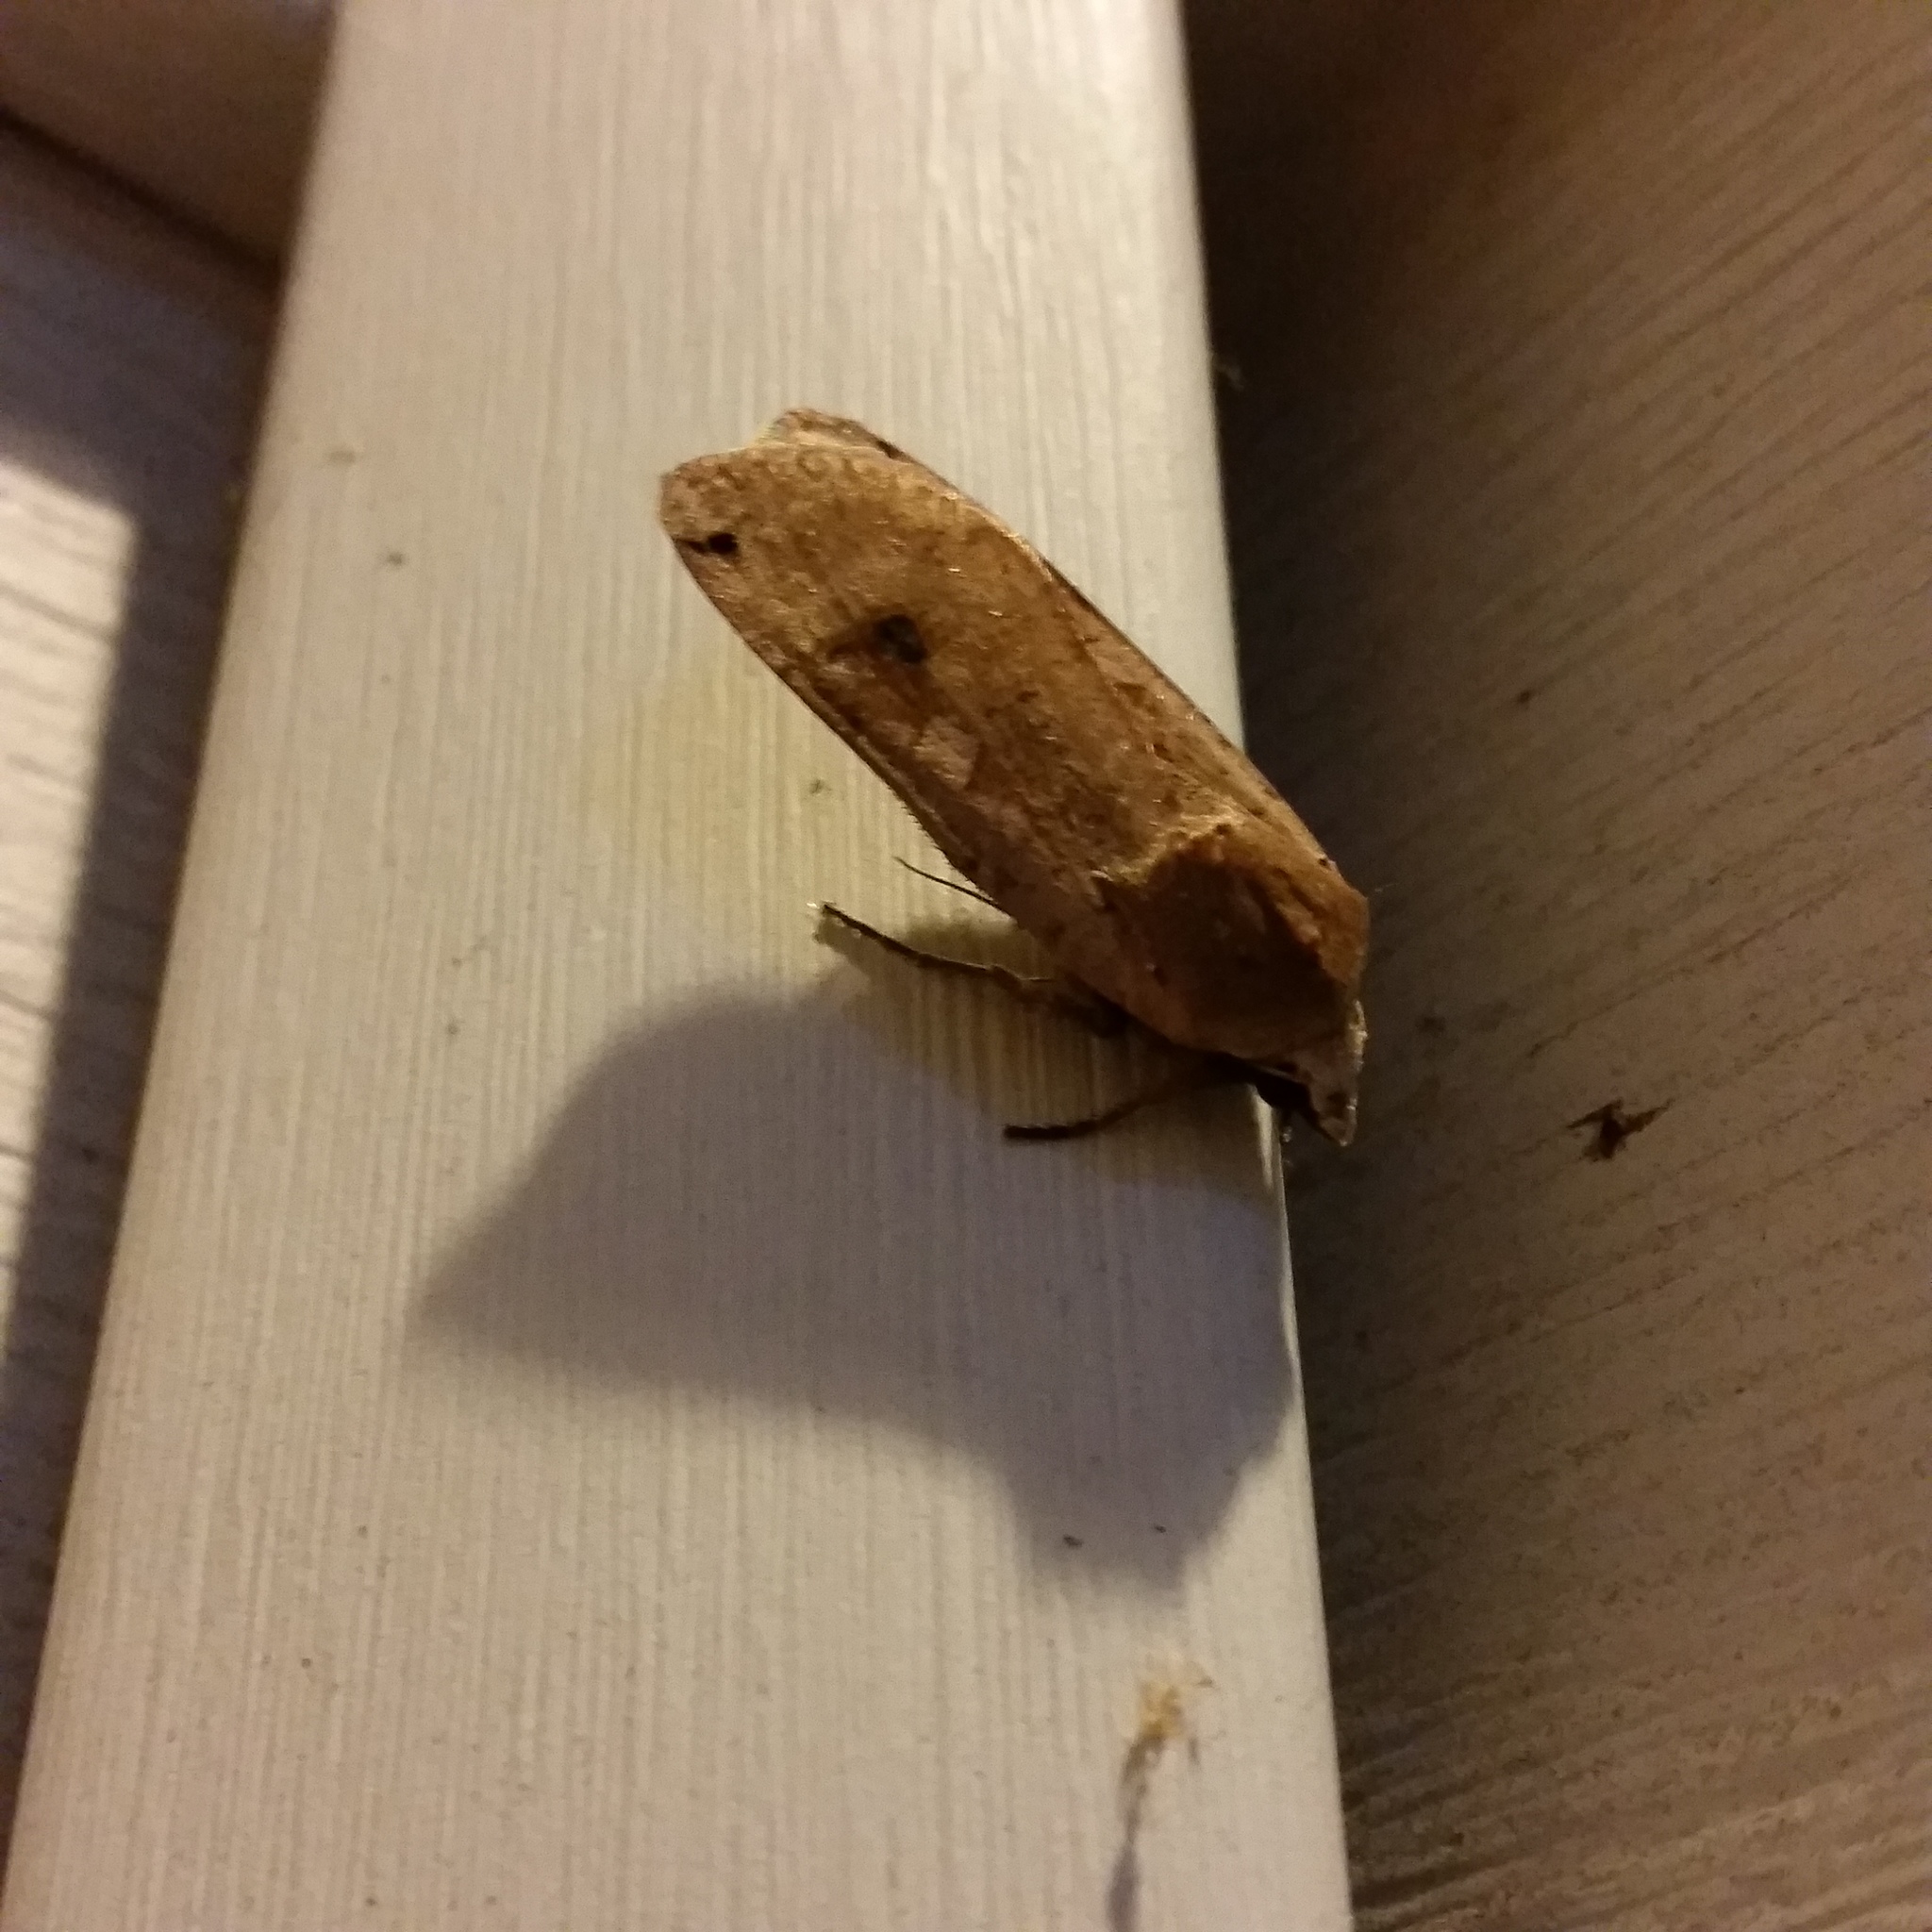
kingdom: Animalia
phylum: Arthropoda
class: Insecta
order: Lepidoptera
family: Noctuidae
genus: Noctua
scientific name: Noctua pronuba
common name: Large yellow underwing
